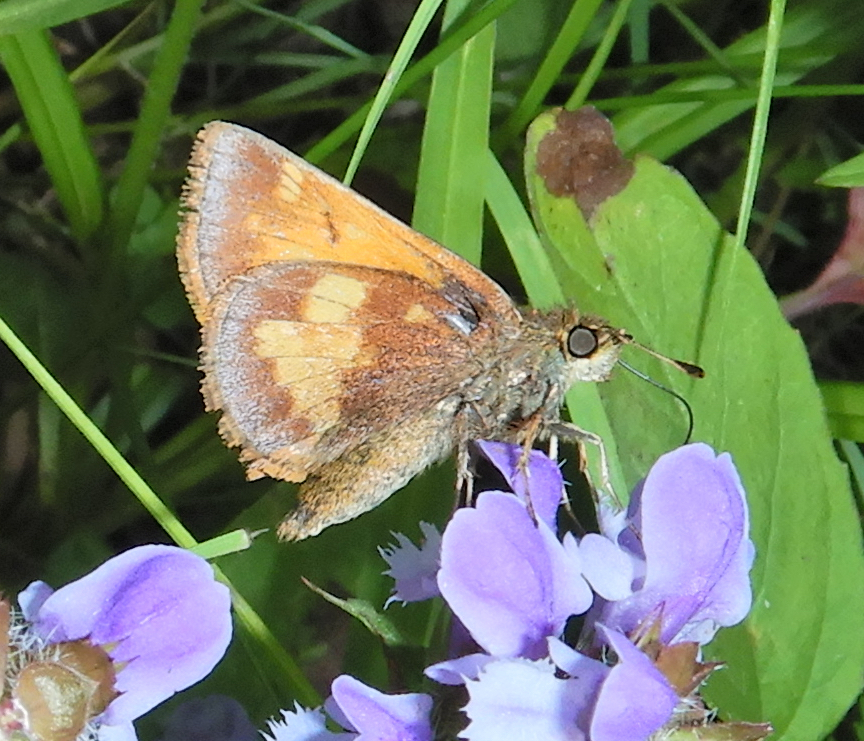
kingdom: Animalia
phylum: Arthropoda
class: Insecta
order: Lepidoptera
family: Hesperiidae
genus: Lon
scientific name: Lon hobomok
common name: Hobomok skipper
